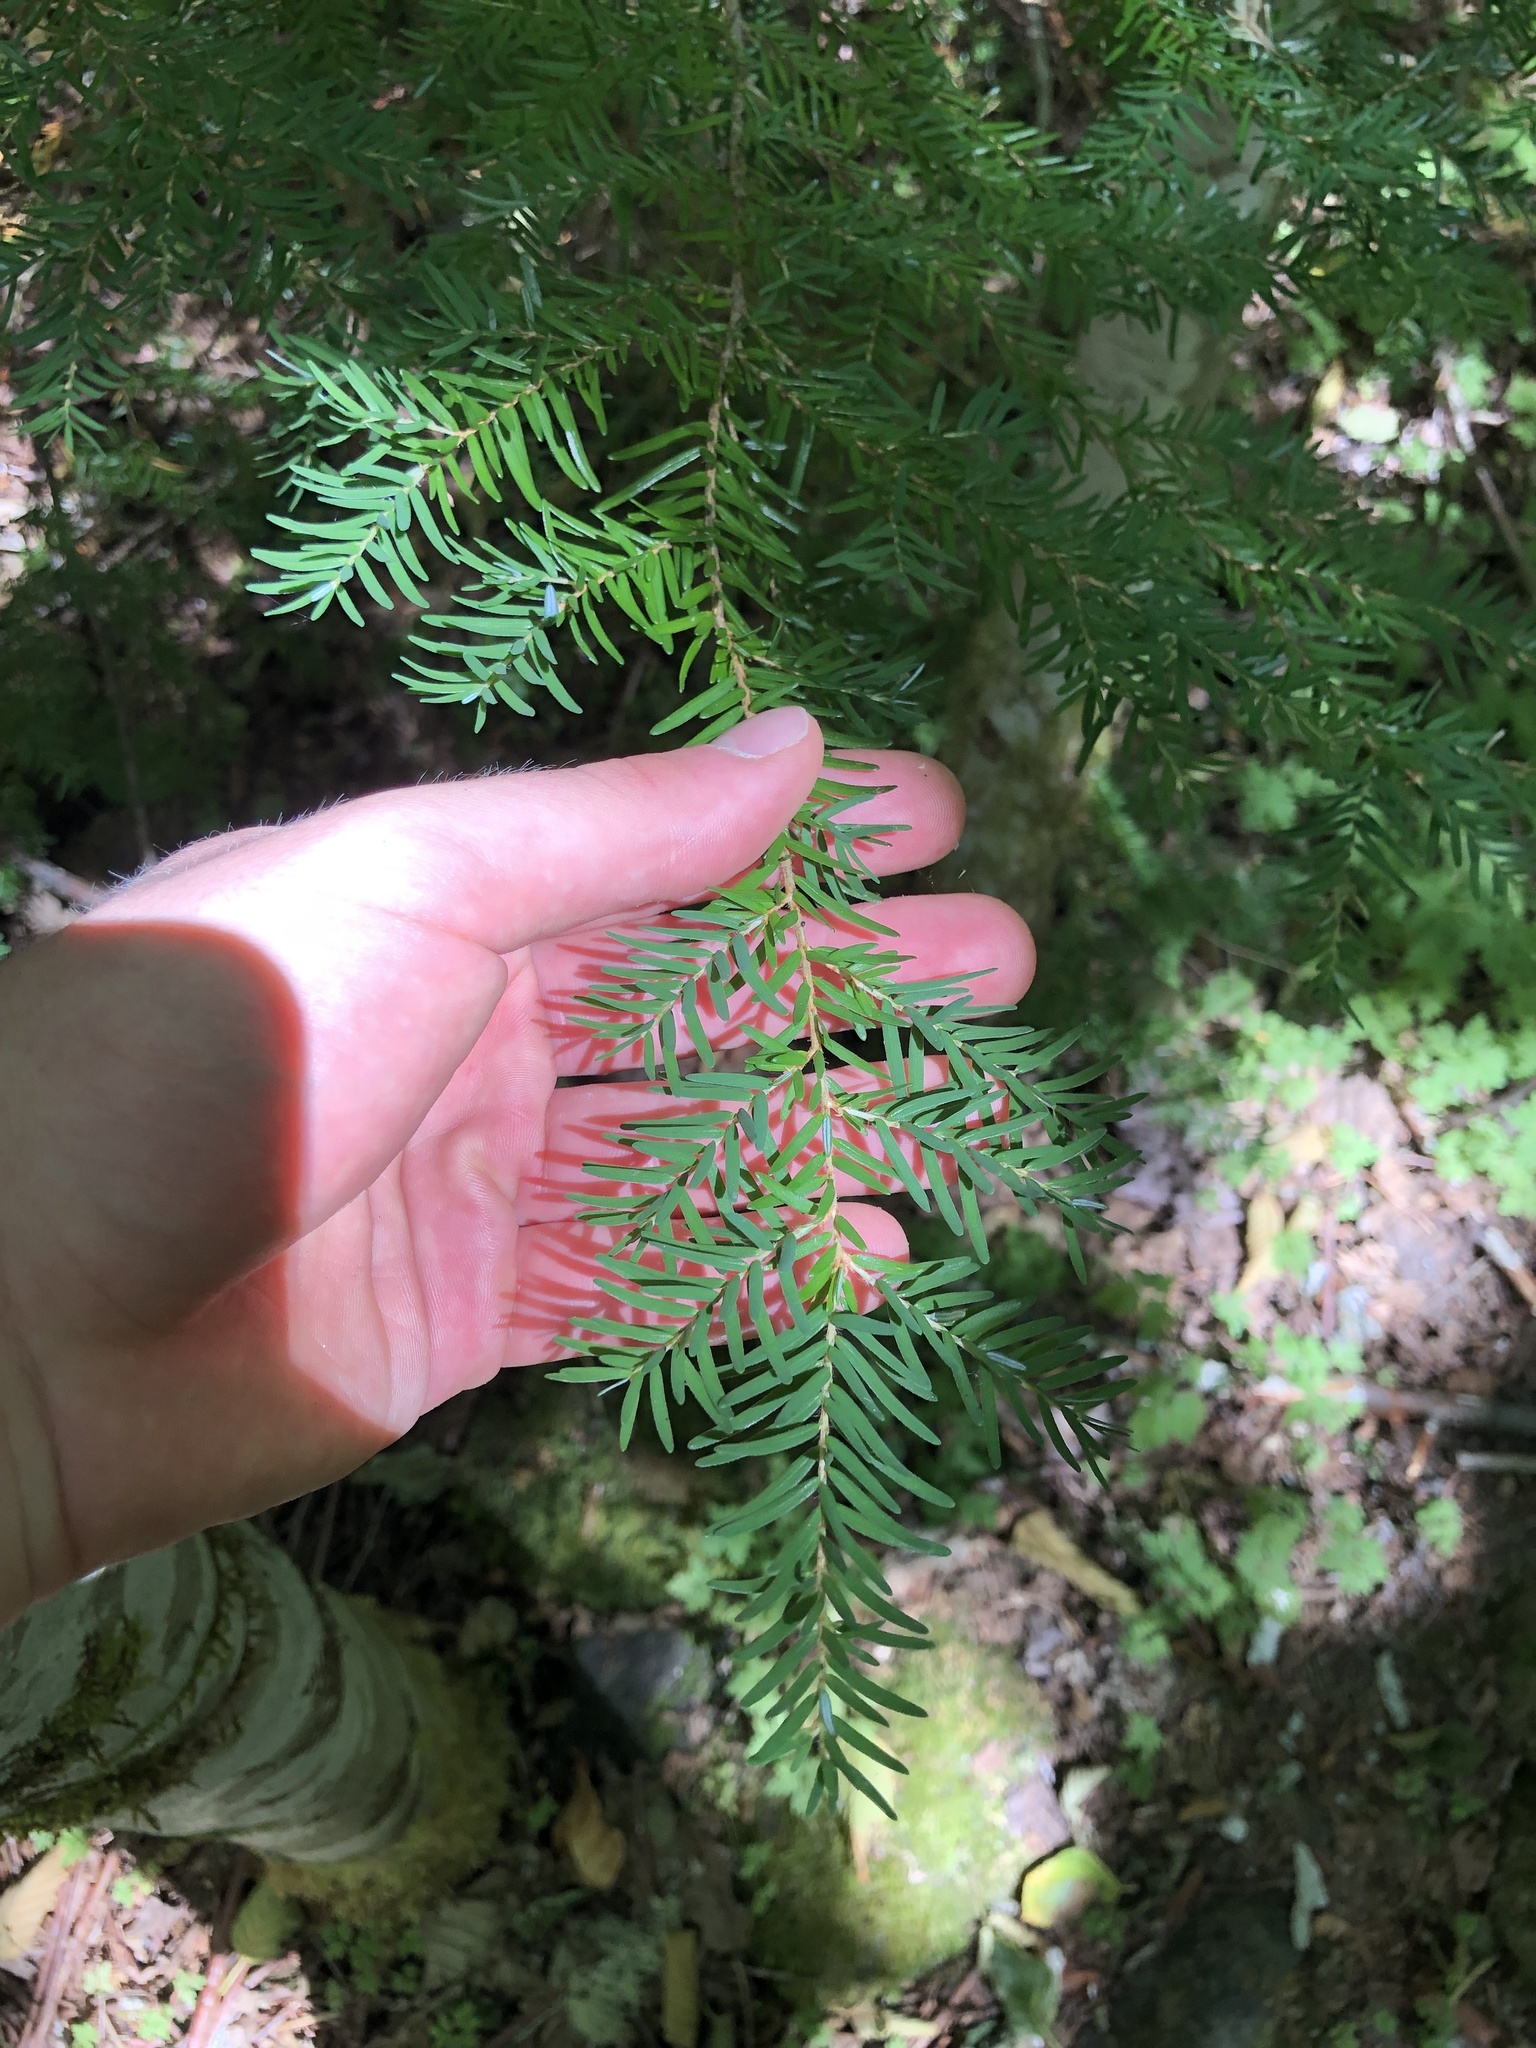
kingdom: Plantae
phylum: Tracheophyta
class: Pinopsida
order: Pinales
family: Pinaceae
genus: Tsuga
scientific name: Tsuga heterophylla
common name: Western hemlock
